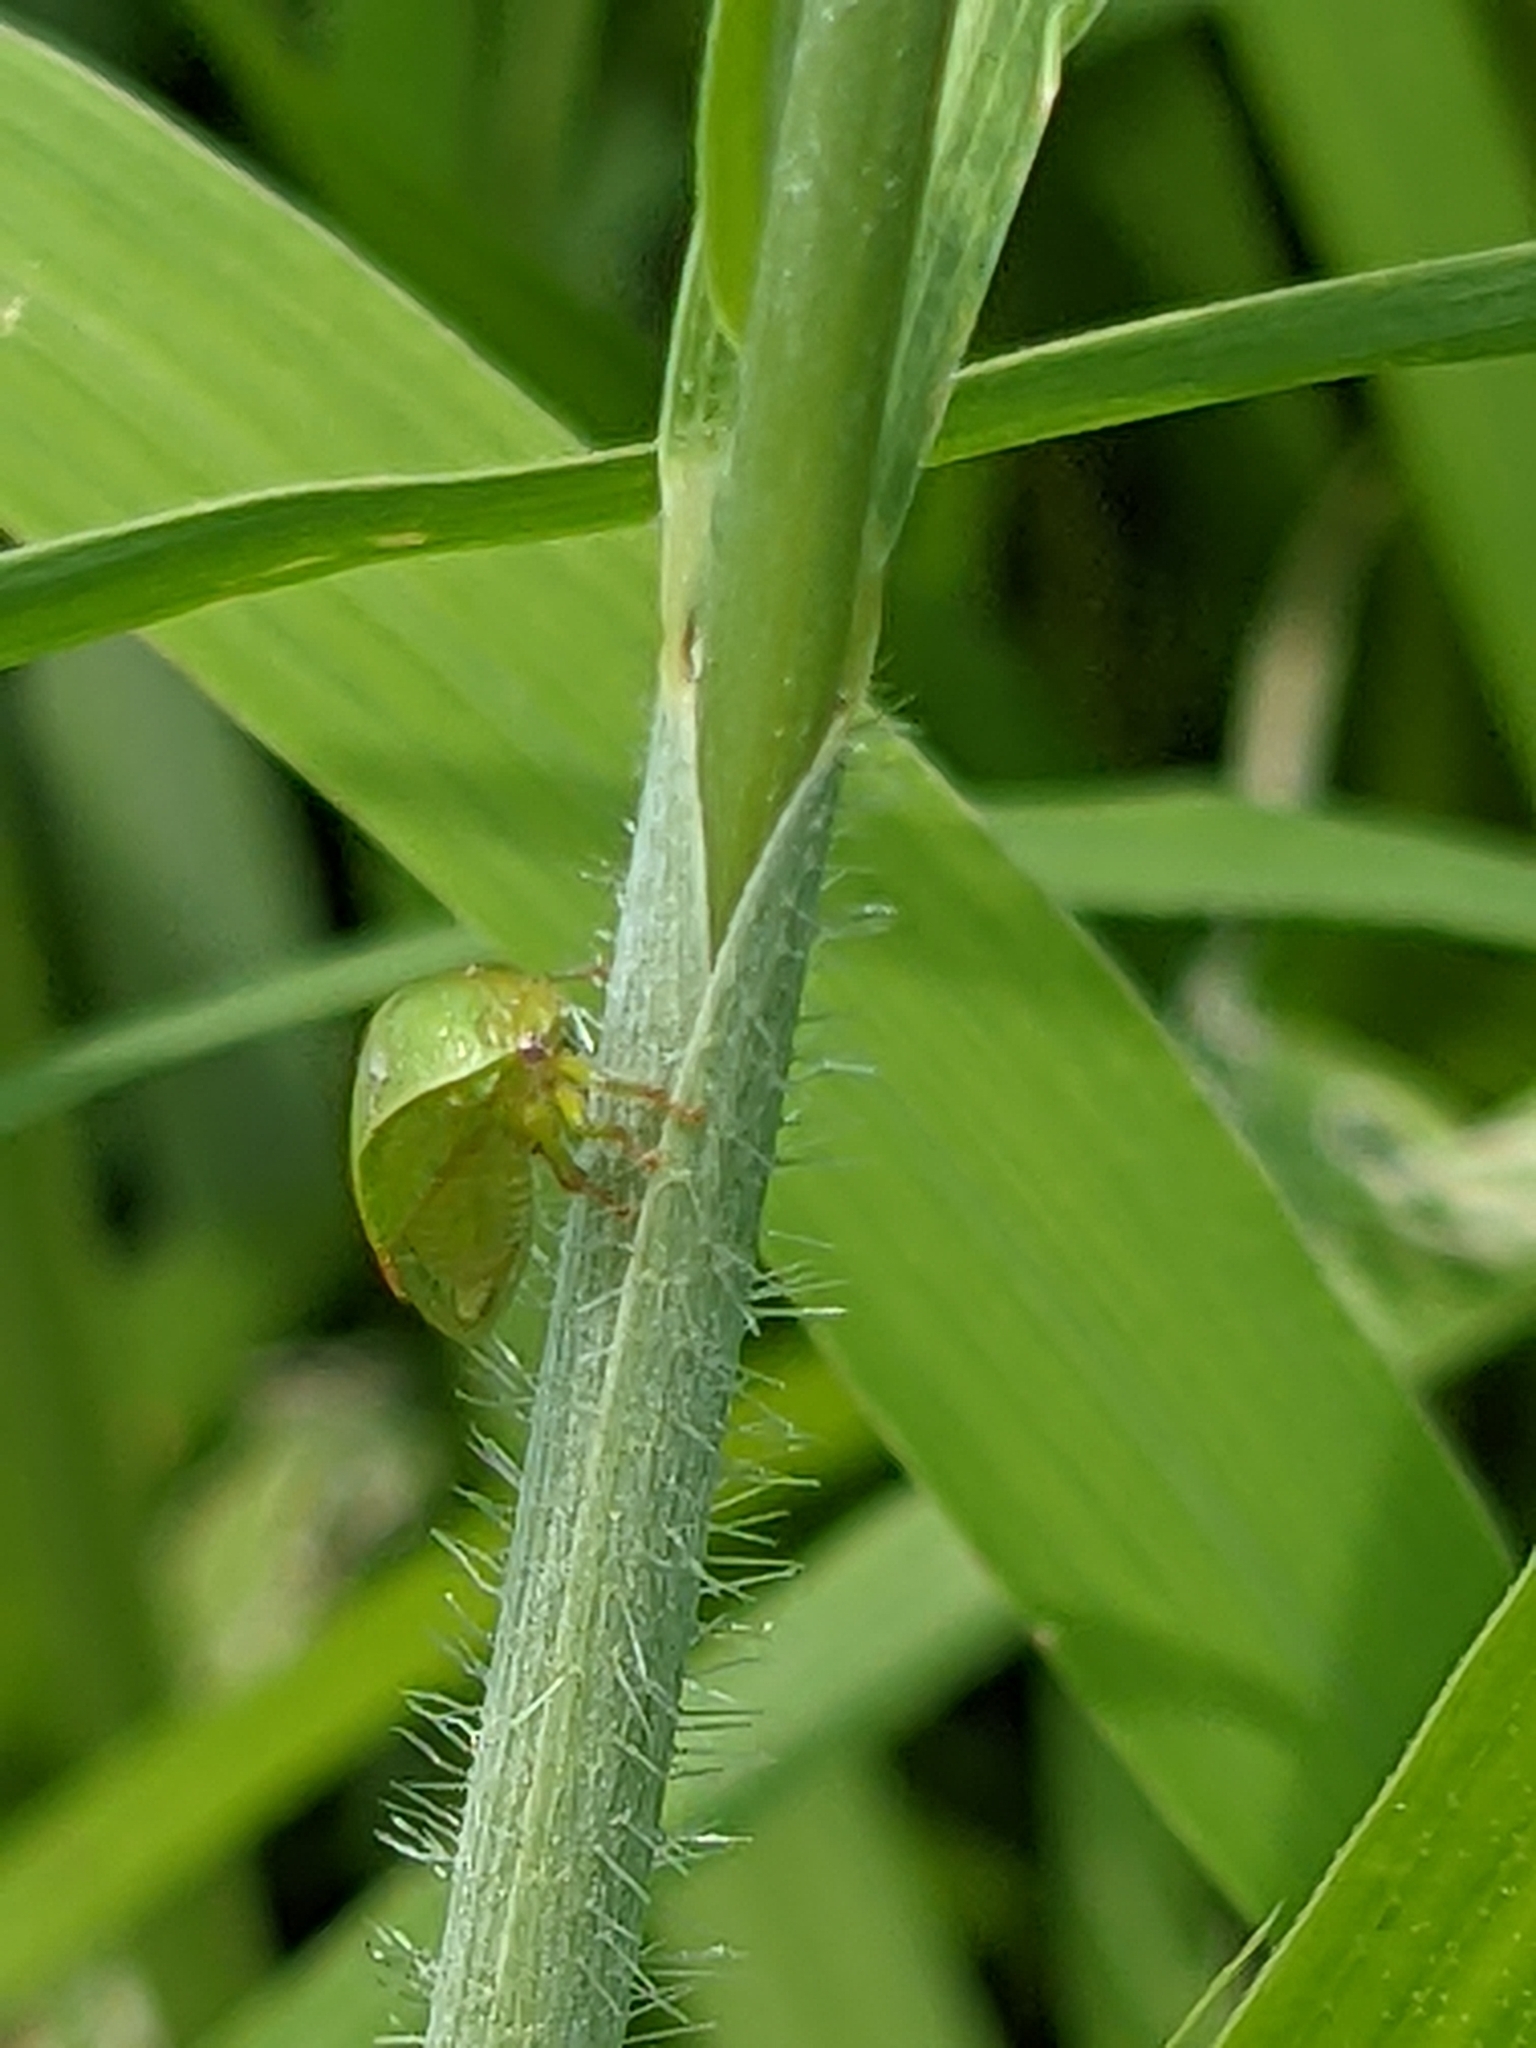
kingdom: Animalia
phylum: Arthropoda
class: Insecta
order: Hemiptera
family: Membracidae
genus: Spissistilus
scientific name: Spissistilus festina
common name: Membracid bug
